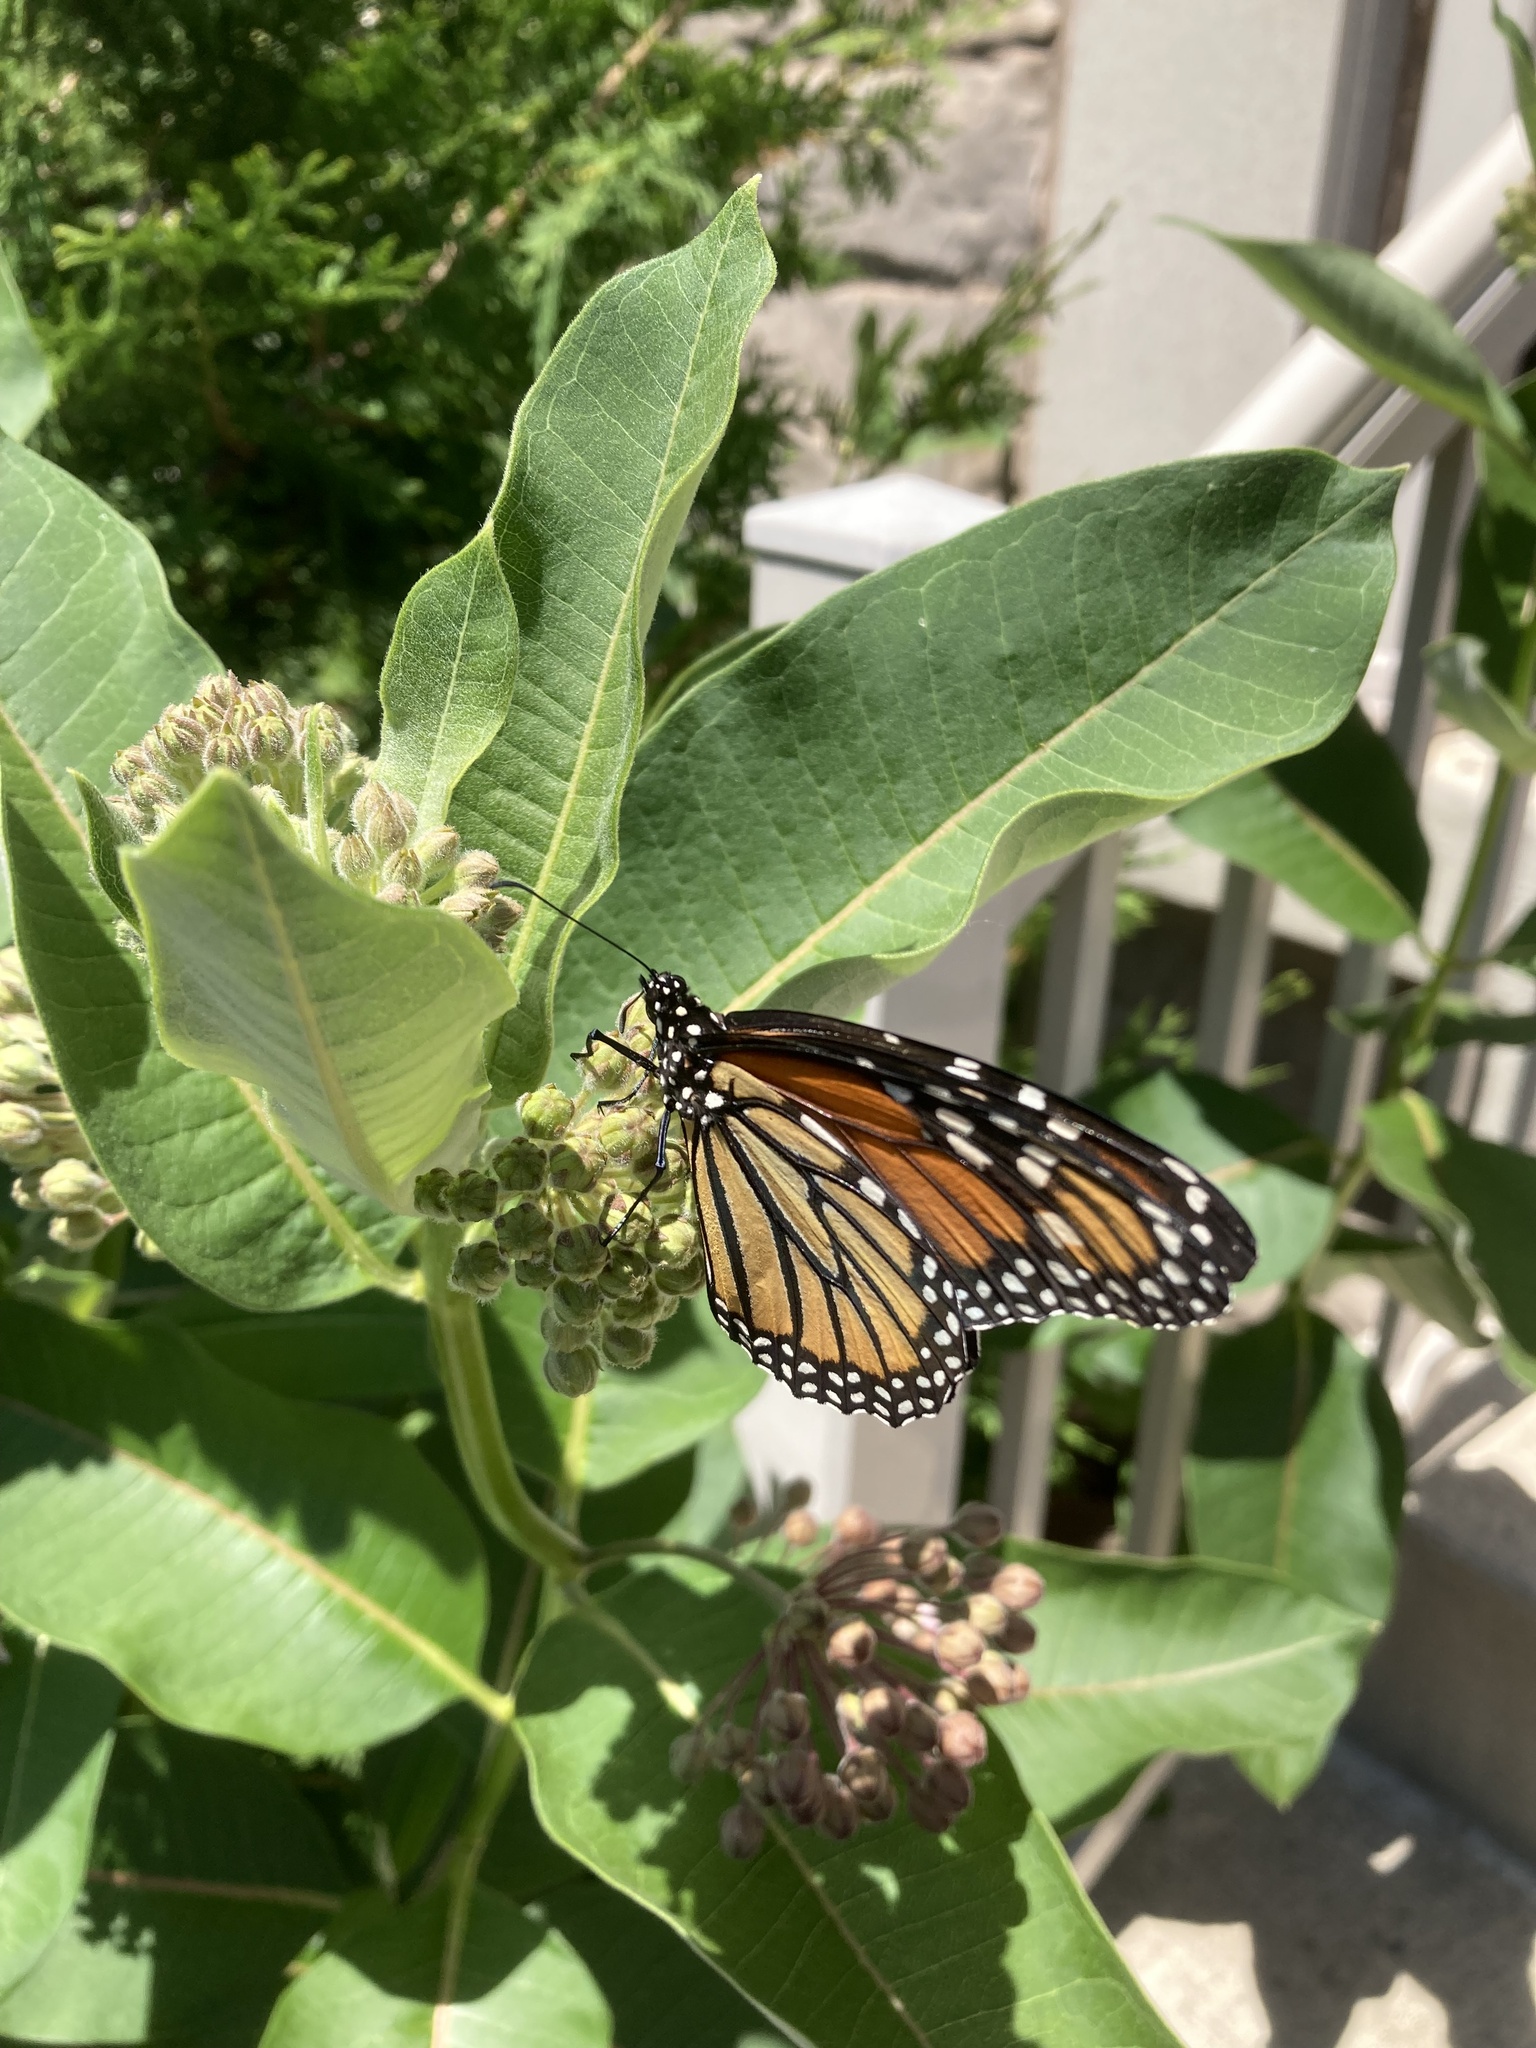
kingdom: Animalia
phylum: Arthropoda
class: Insecta
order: Lepidoptera
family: Nymphalidae
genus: Danaus
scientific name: Danaus plexippus
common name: Monarch
